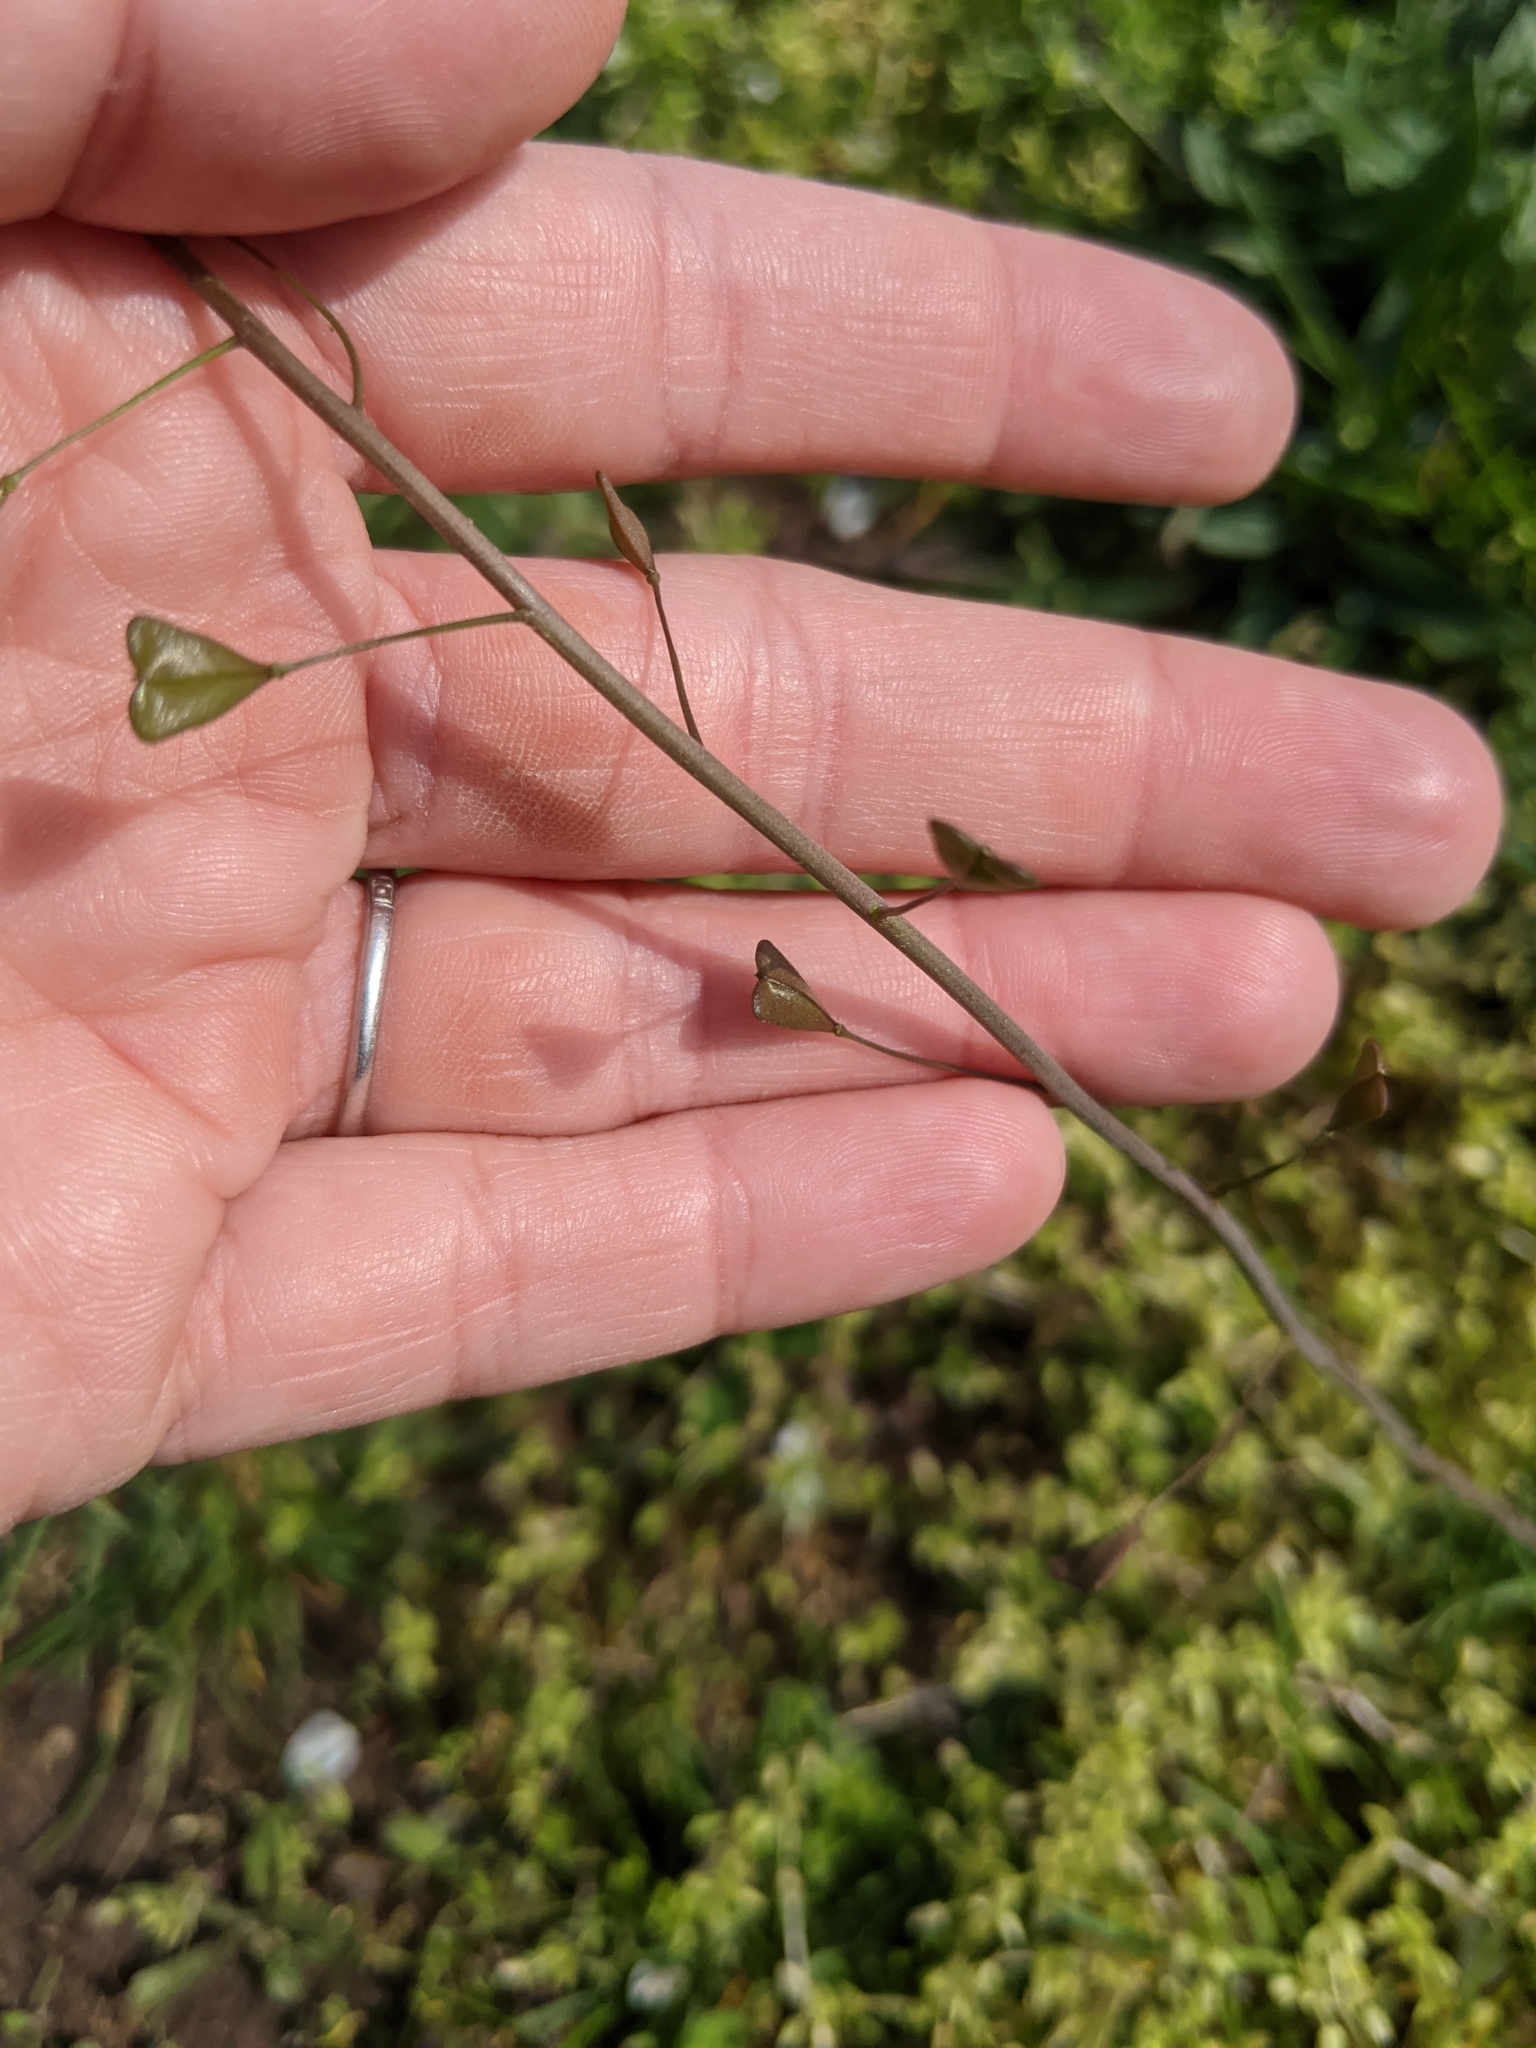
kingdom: Plantae
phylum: Tracheophyta
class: Magnoliopsida
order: Brassicales
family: Brassicaceae
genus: Capsella
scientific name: Capsella bursa-pastoris
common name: Shepherd's purse
